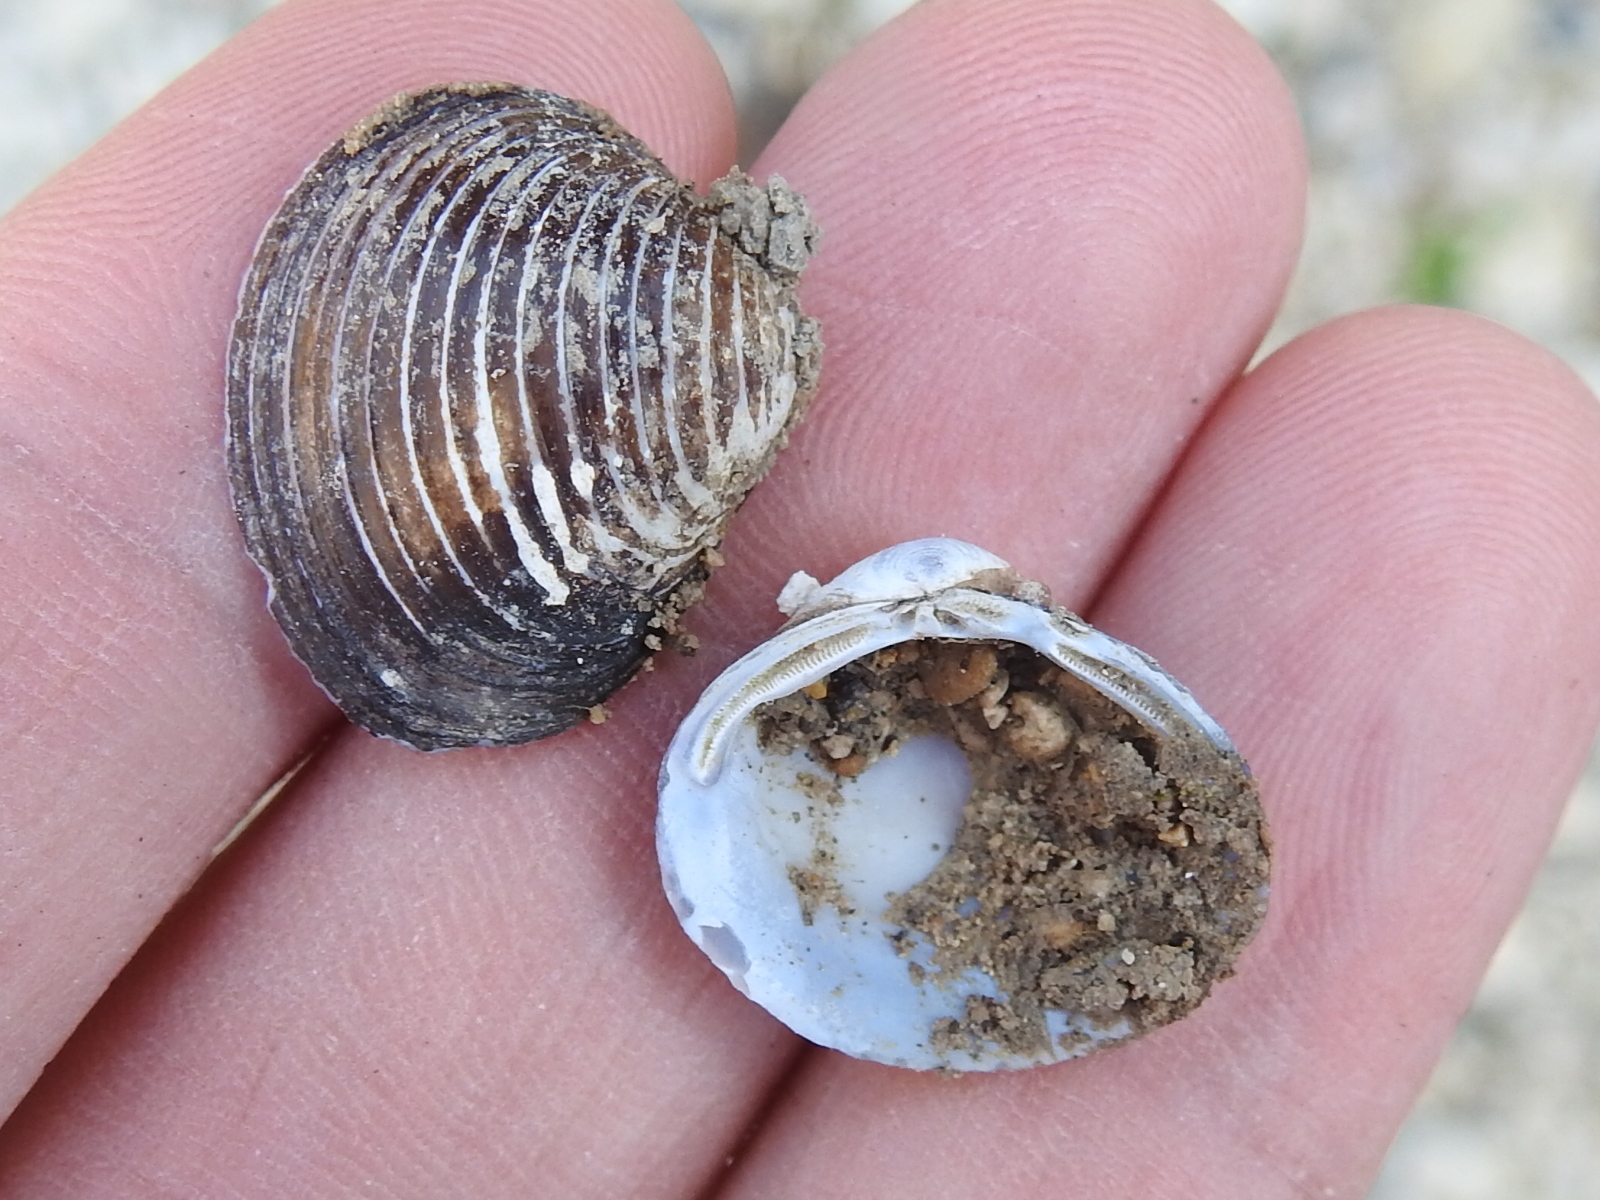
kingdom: Animalia
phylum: Mollusca
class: Bivalvia
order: Venerida
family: Cyrenidae
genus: Corbicula
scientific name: Corbicula fluminea
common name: Asian clam
